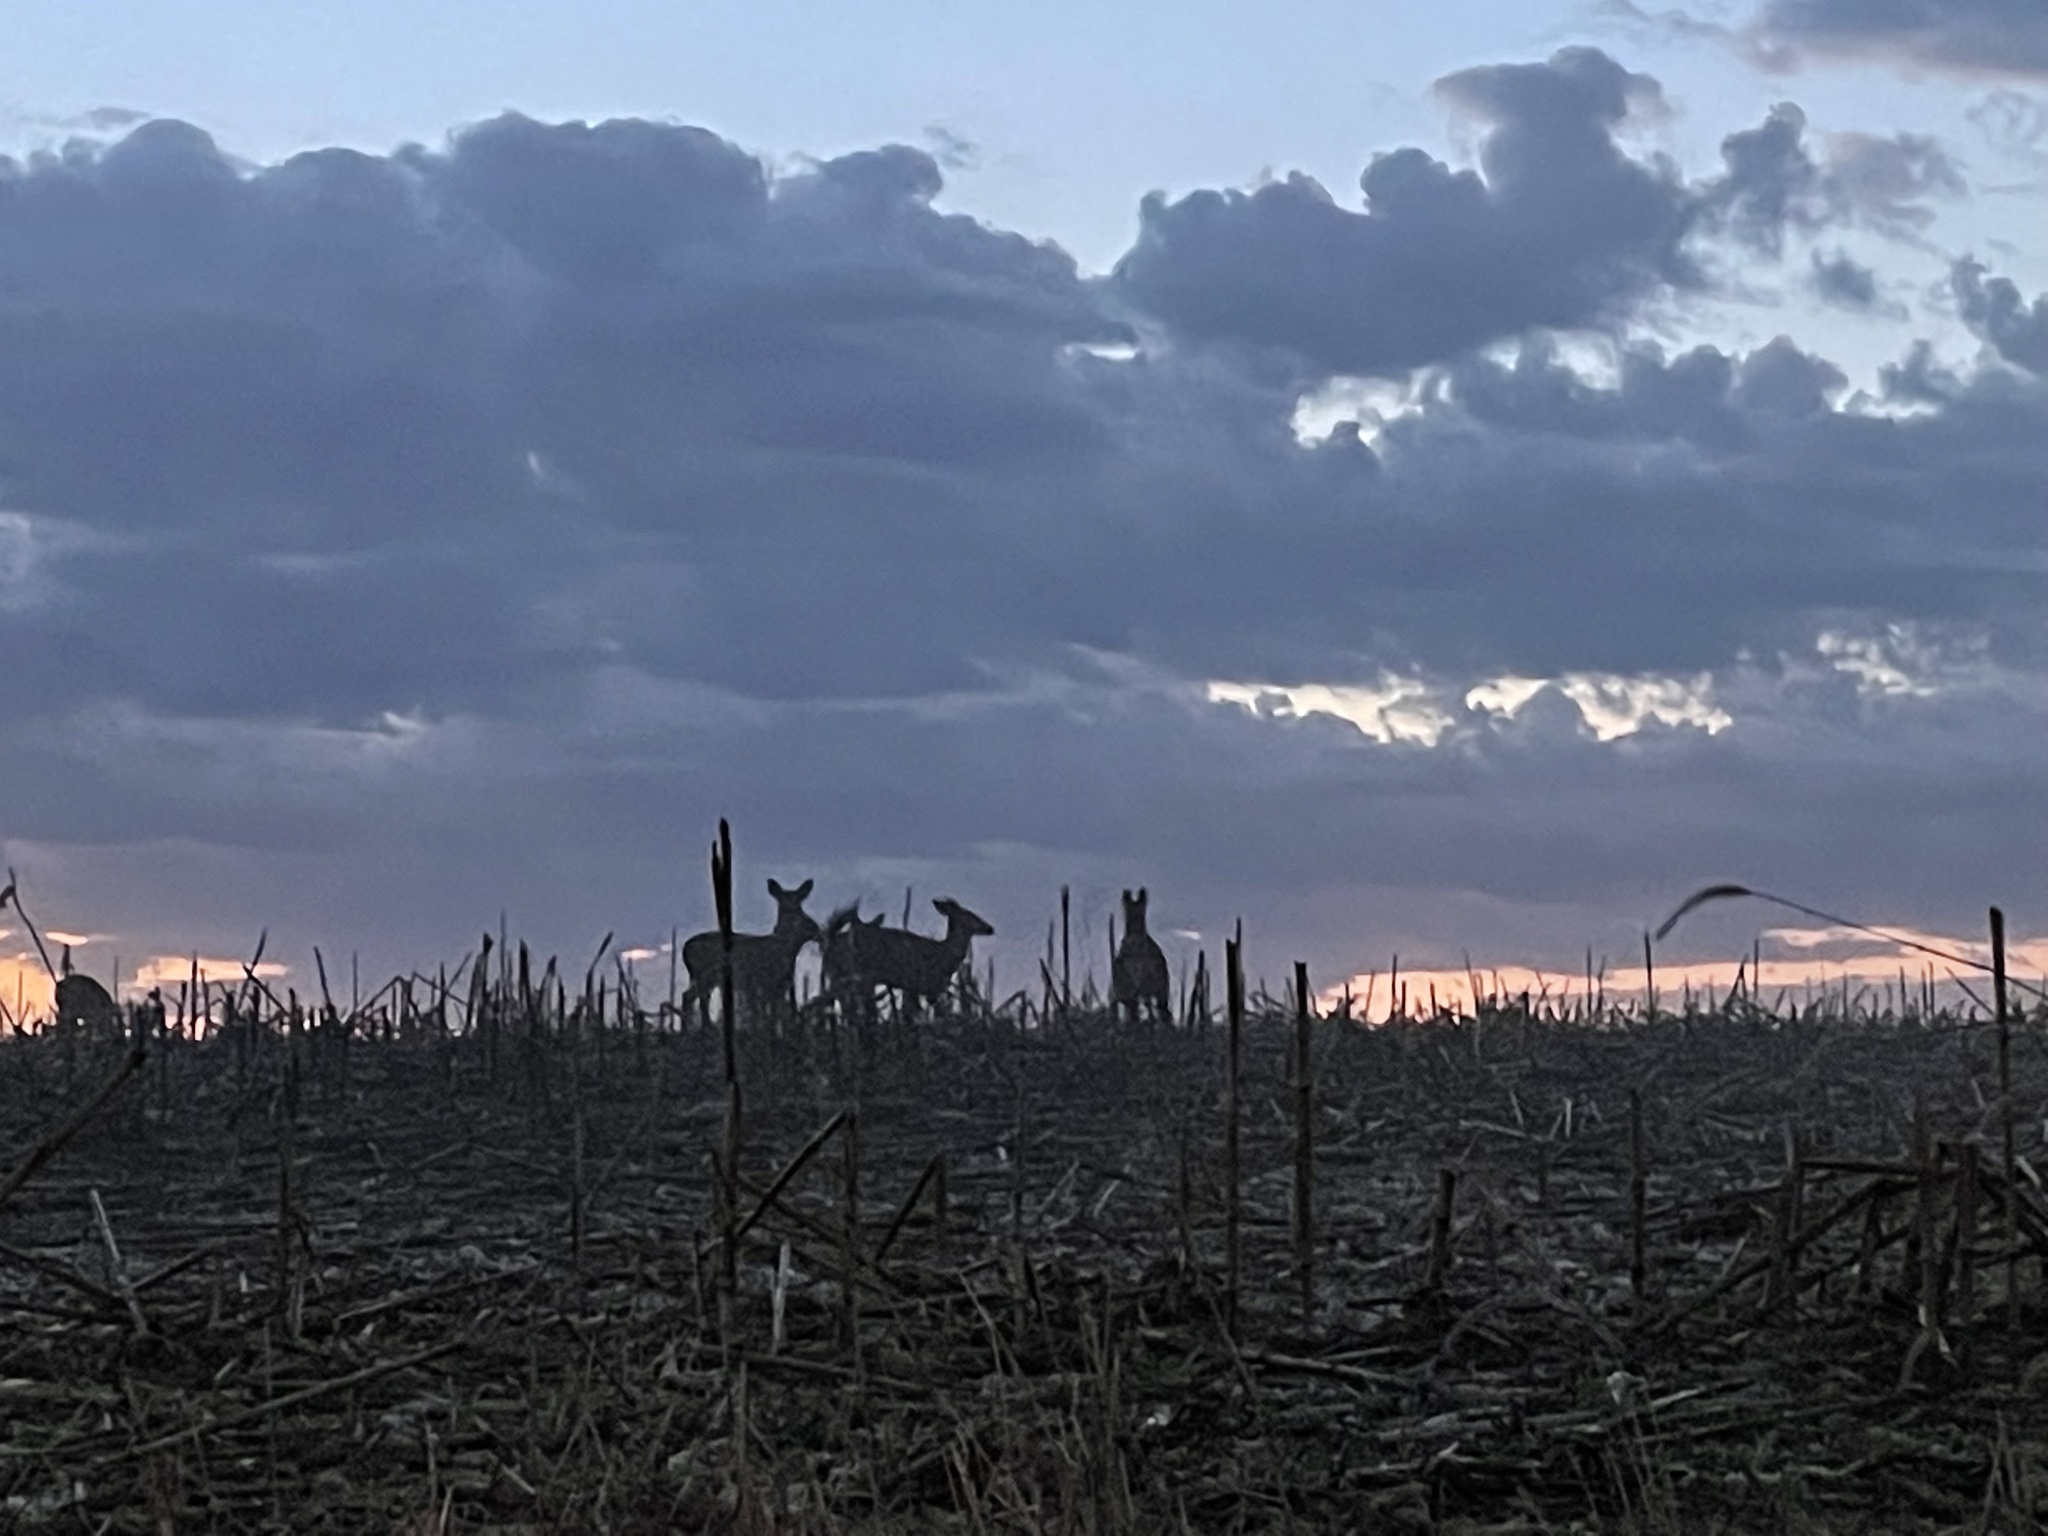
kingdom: Animalia
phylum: Chordata
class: Mammalia
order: Artiodactyla
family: Cervidae
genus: Odocoileus
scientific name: Odocoileus virginianus
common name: White-tailed deer
